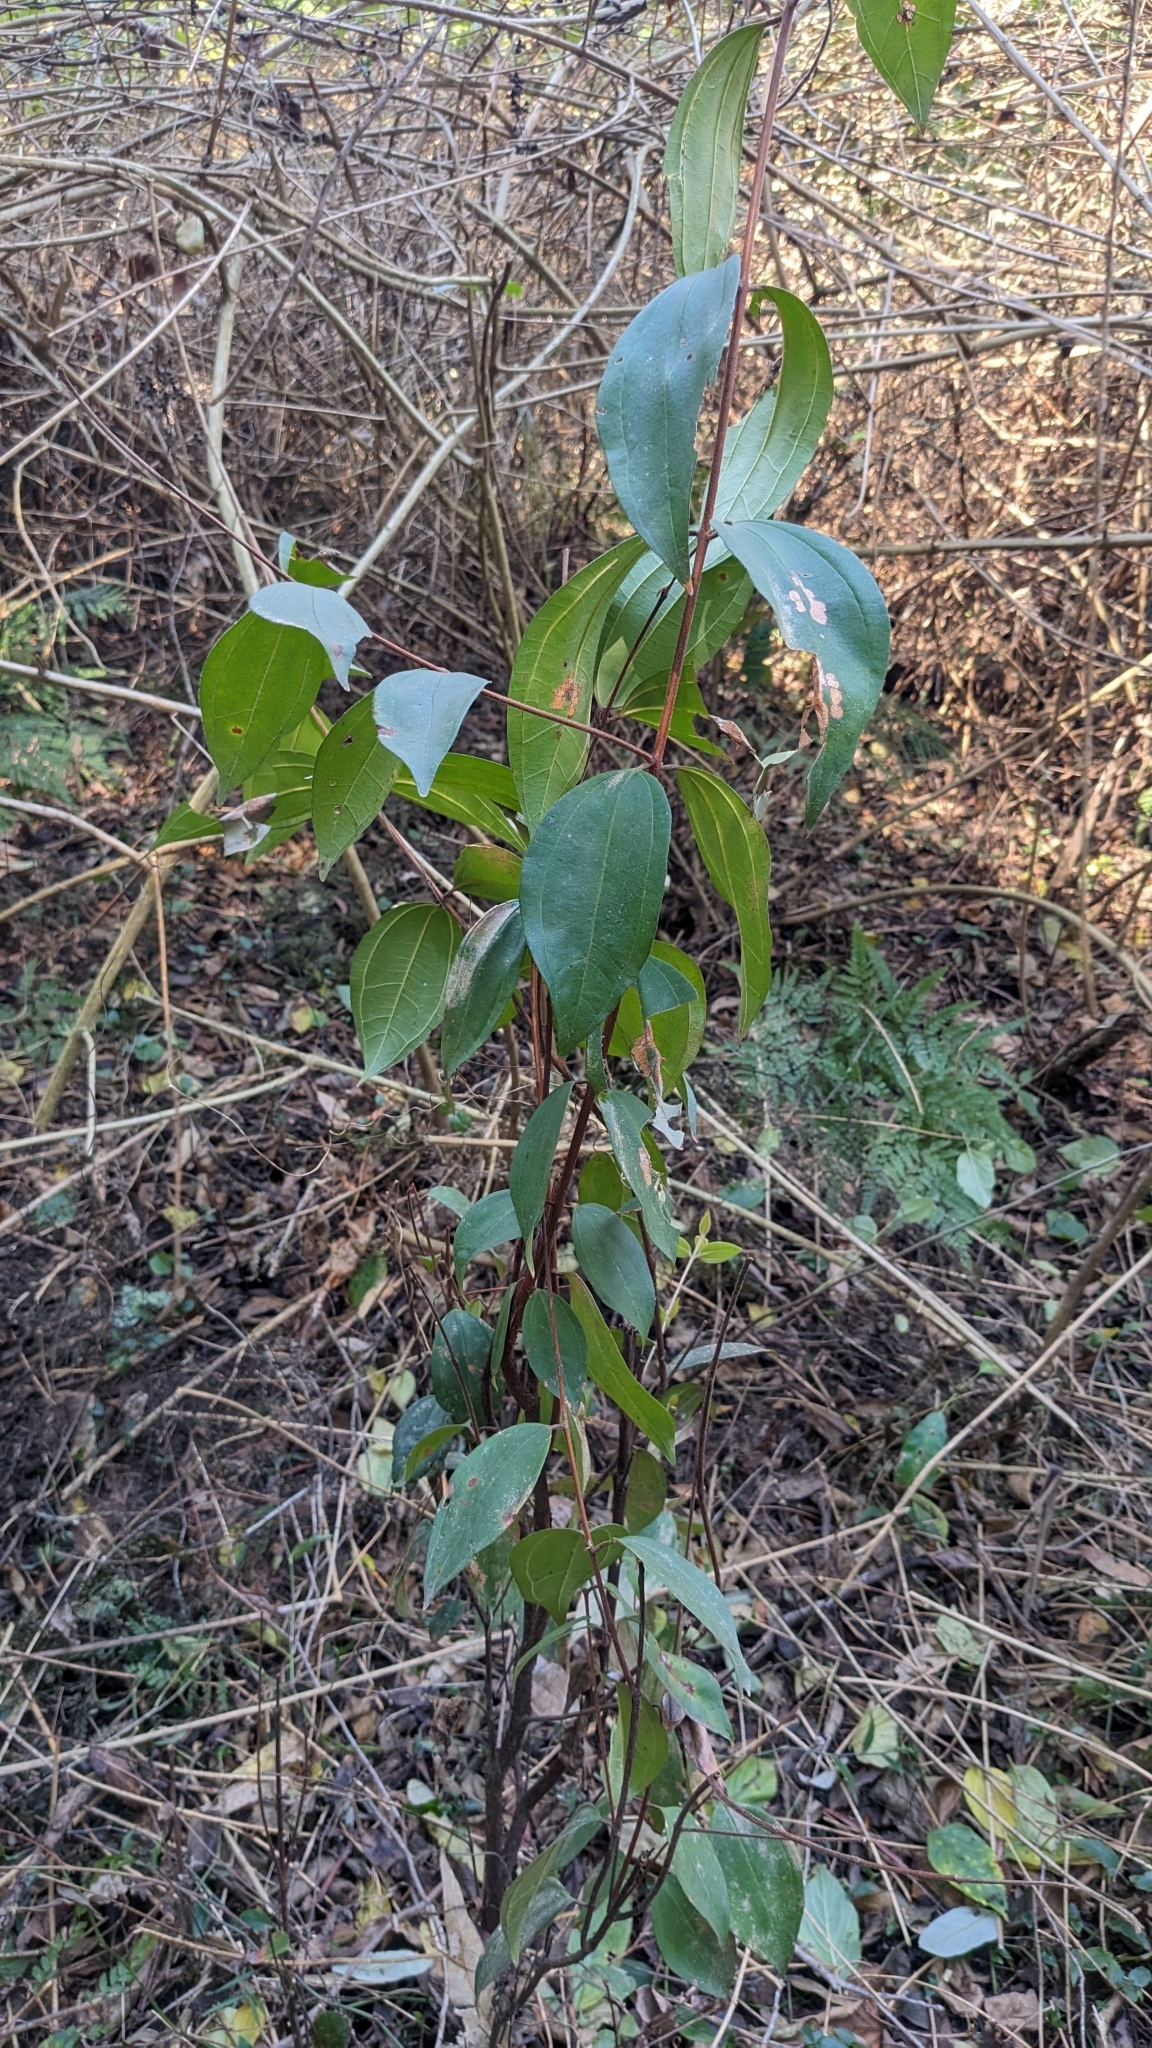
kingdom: Plantae
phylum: Tracheophyta
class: Magnoliopsida
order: Myrtales
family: Myrtaceae
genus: Rhodamnia
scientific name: Rhodamnia rubescens
